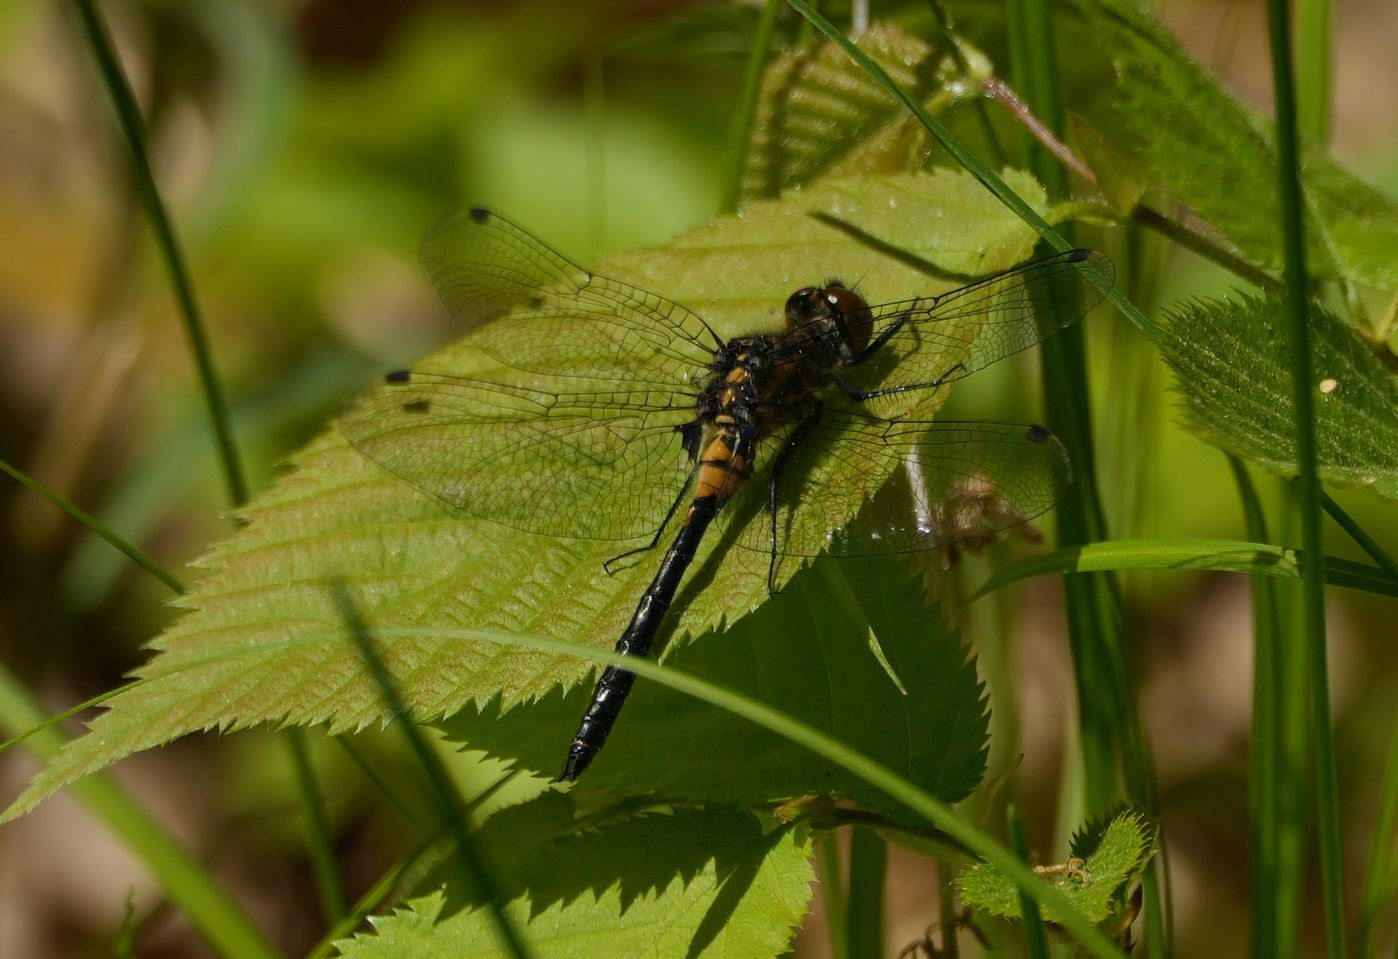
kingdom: Animalia
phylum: Arthropoda
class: Insecta
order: Odonata
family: Libellulidae
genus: Leucorrhinia
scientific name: Leucorrhinia proxima
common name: Belted whiteface
